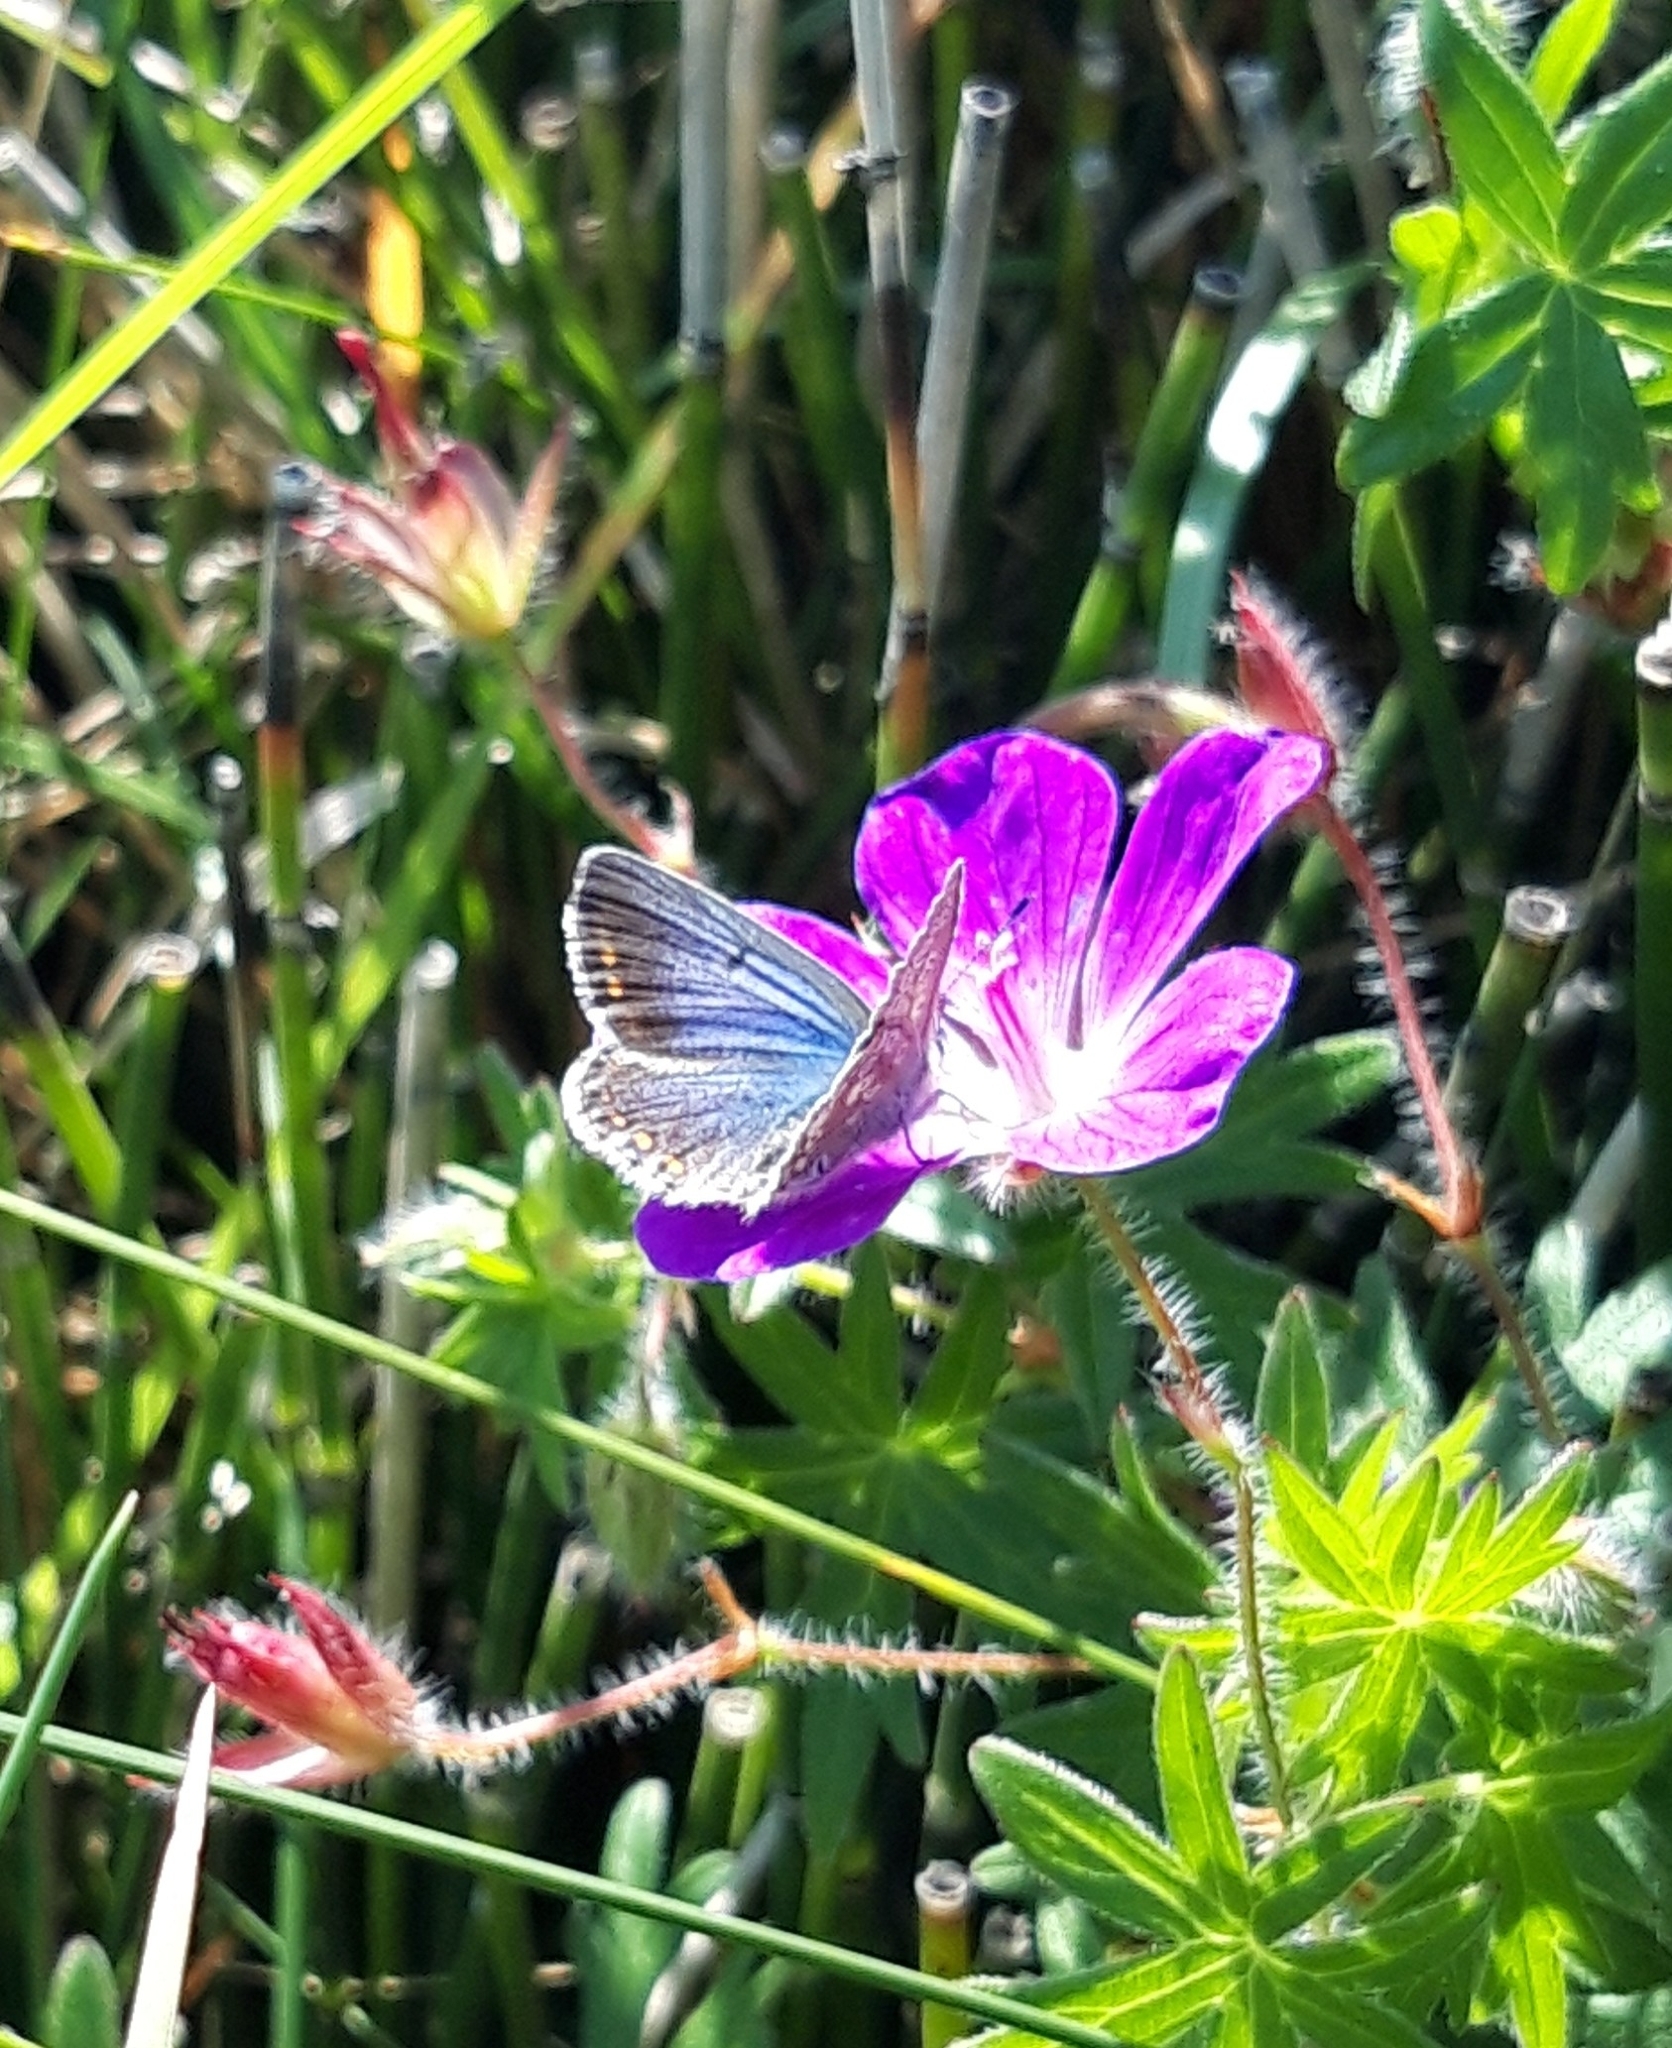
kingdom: Animalia
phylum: Arthropoda
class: Insecta
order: Lepidoptera
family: Lycaenidae
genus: Polyommatus
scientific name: Polyommatus icarus
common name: Common blue
